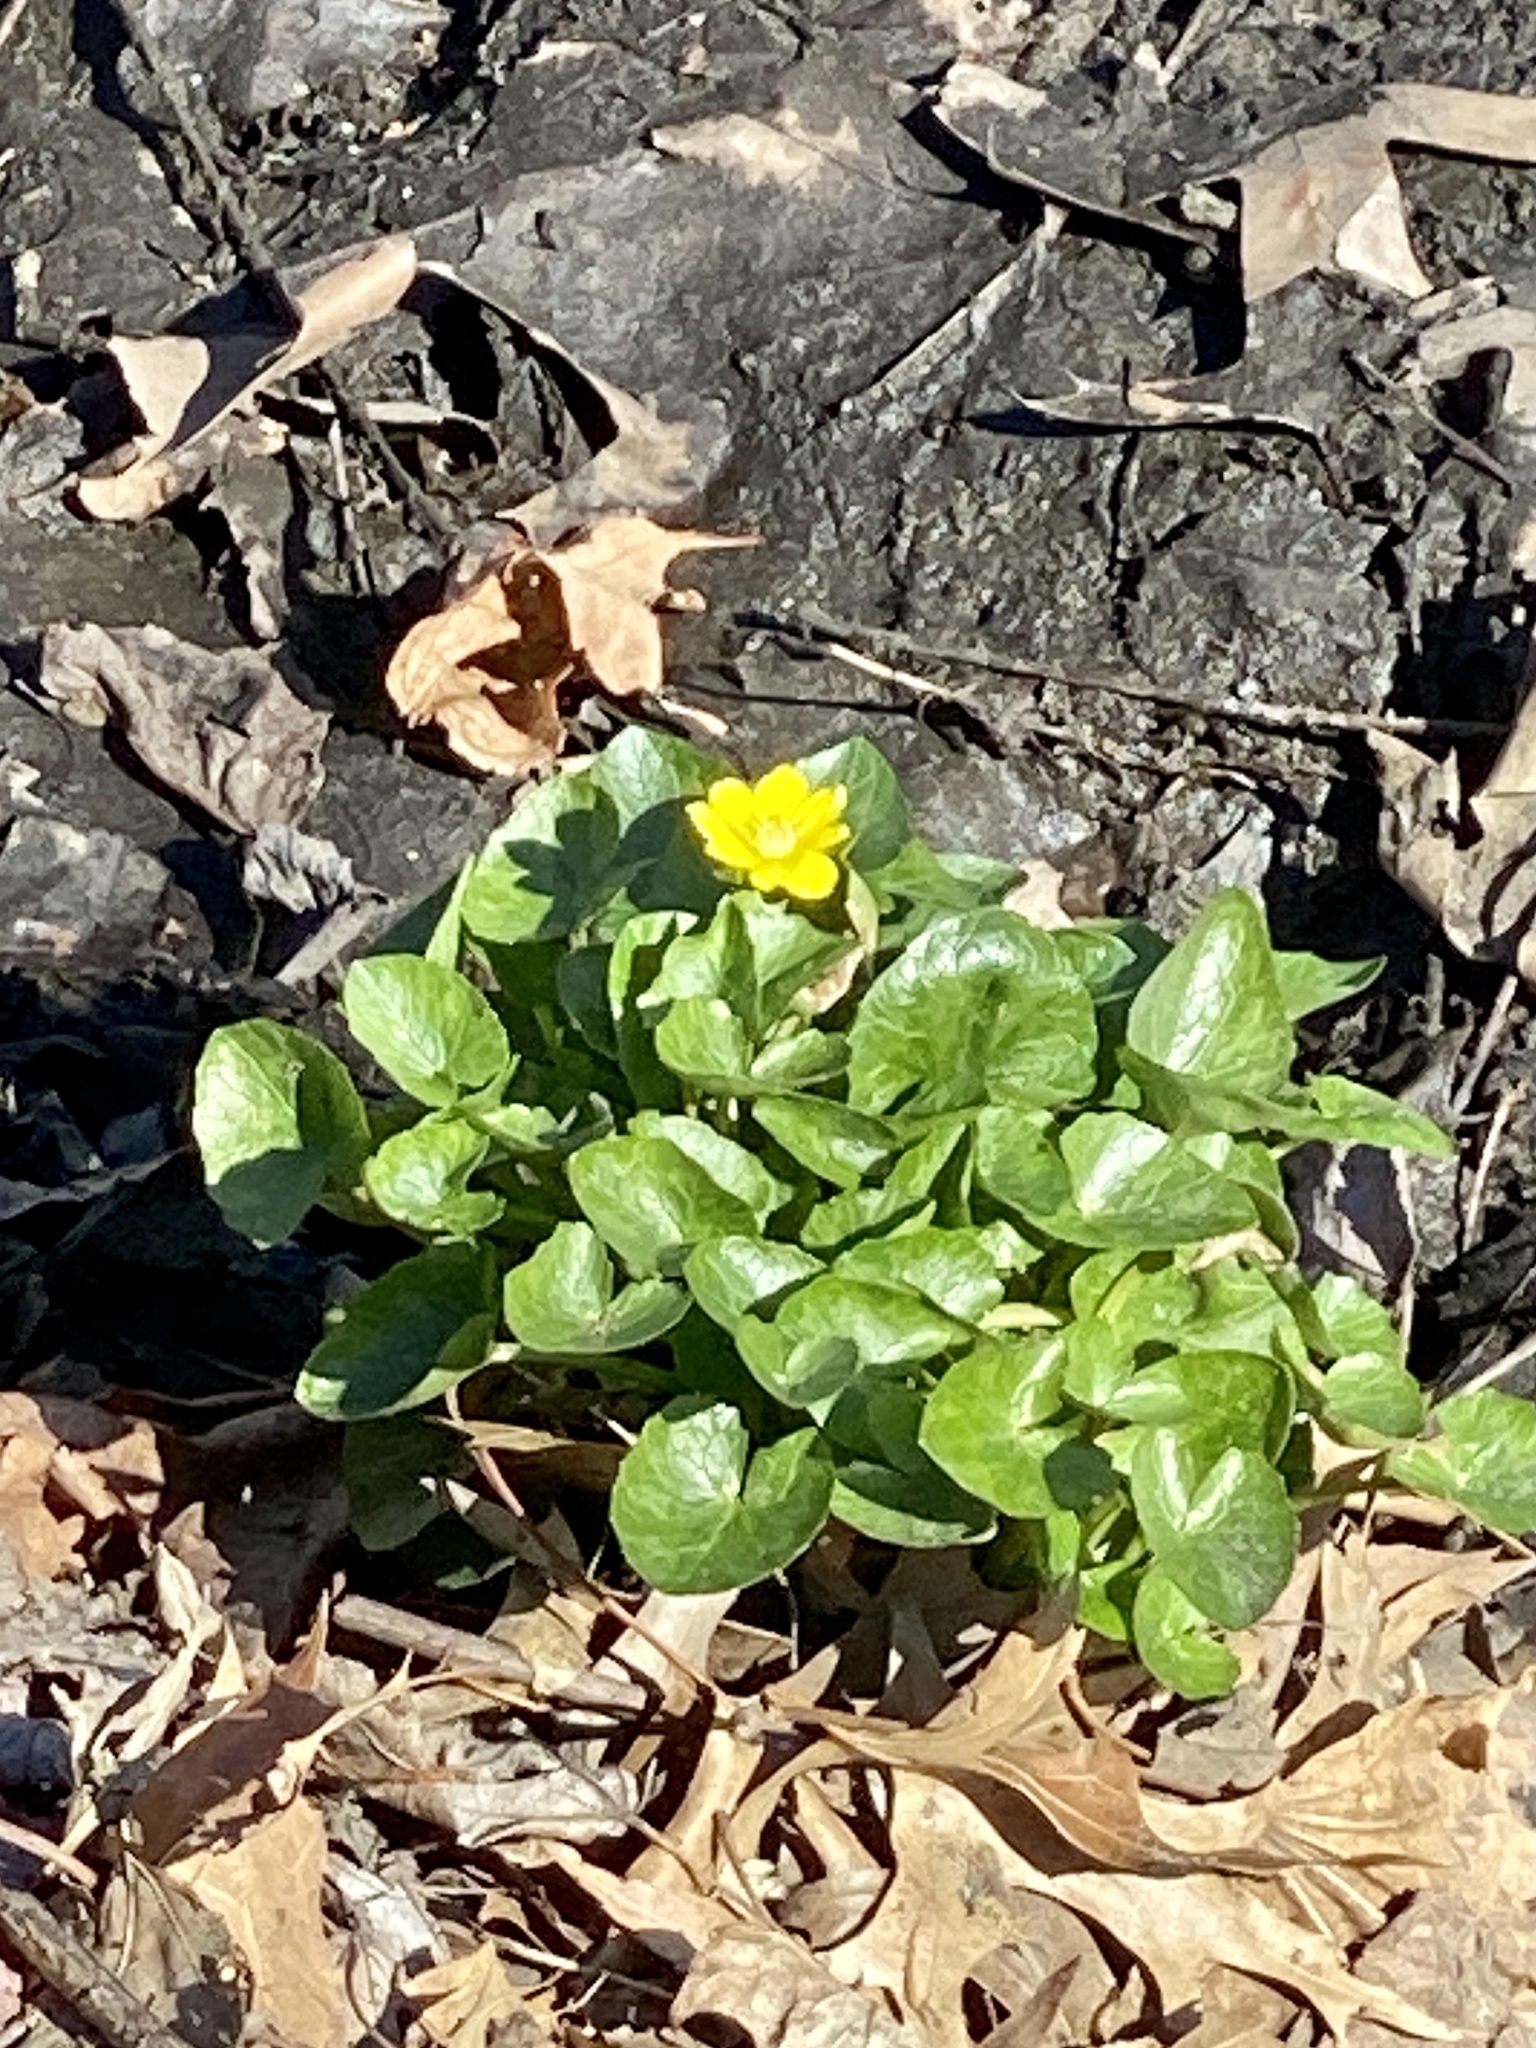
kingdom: Plantae
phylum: Tracheophyta
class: Magnoliopsida
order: Ranunculales
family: Ranunculaceae
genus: Ficaria
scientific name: Ficaria verna
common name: Lesser celandine
